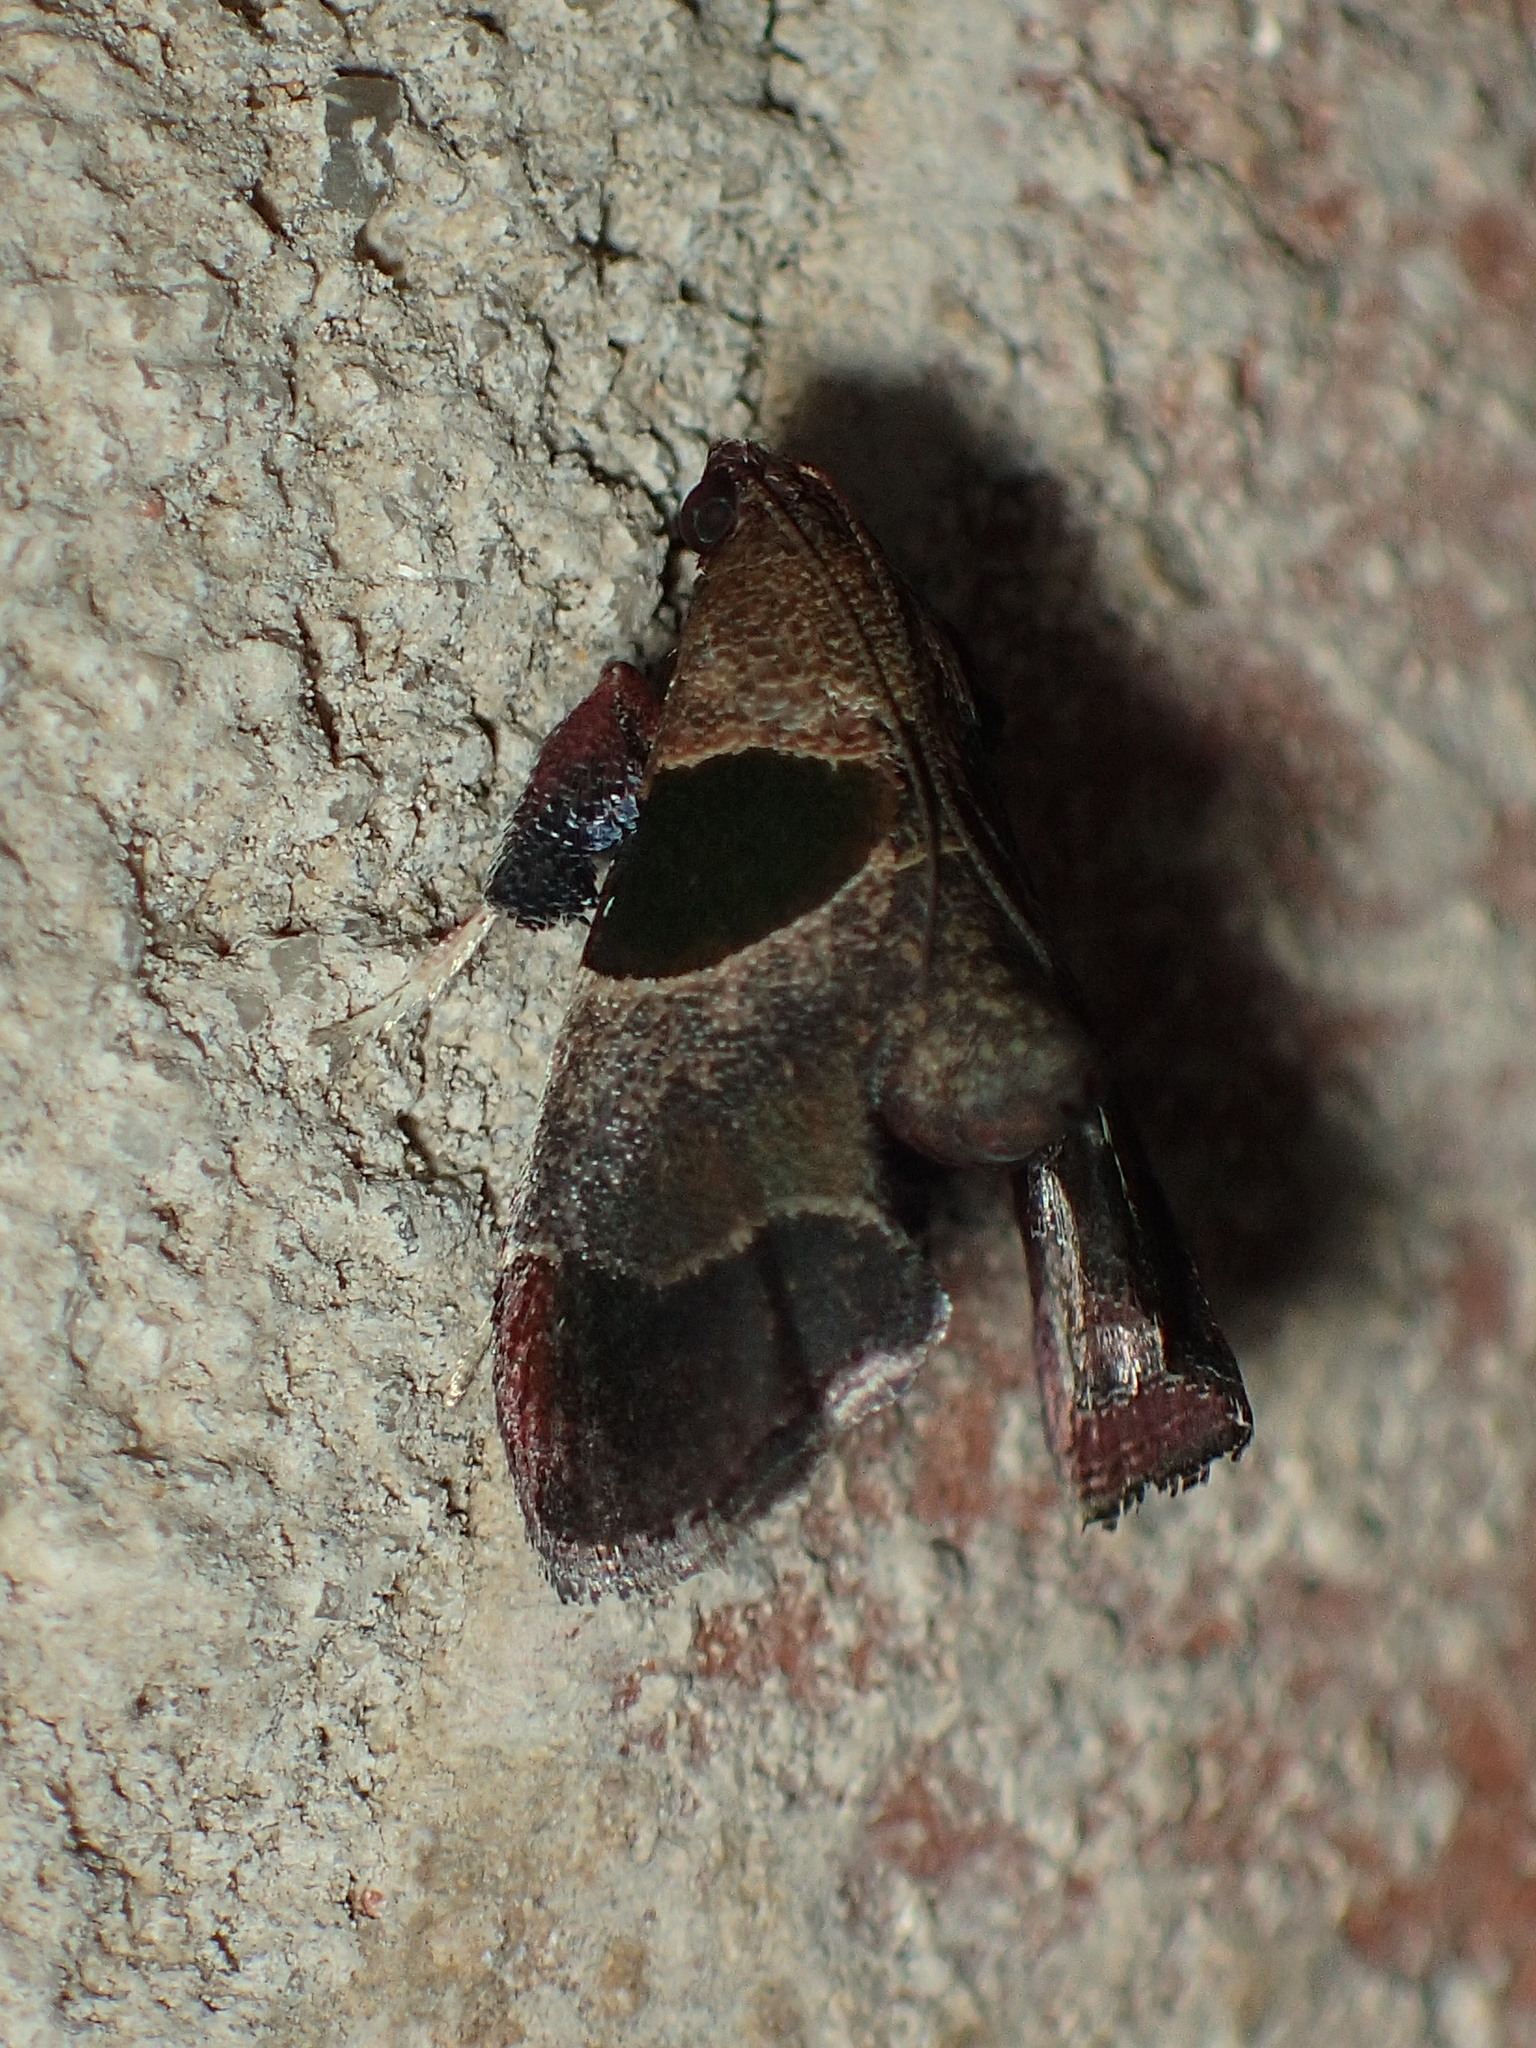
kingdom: Animalia
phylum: Arthropoda
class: Insecta
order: Lepidoptera
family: Pyralidae
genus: Tosale
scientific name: Tosale oviplagalis
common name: Dimorphic tosale moth
